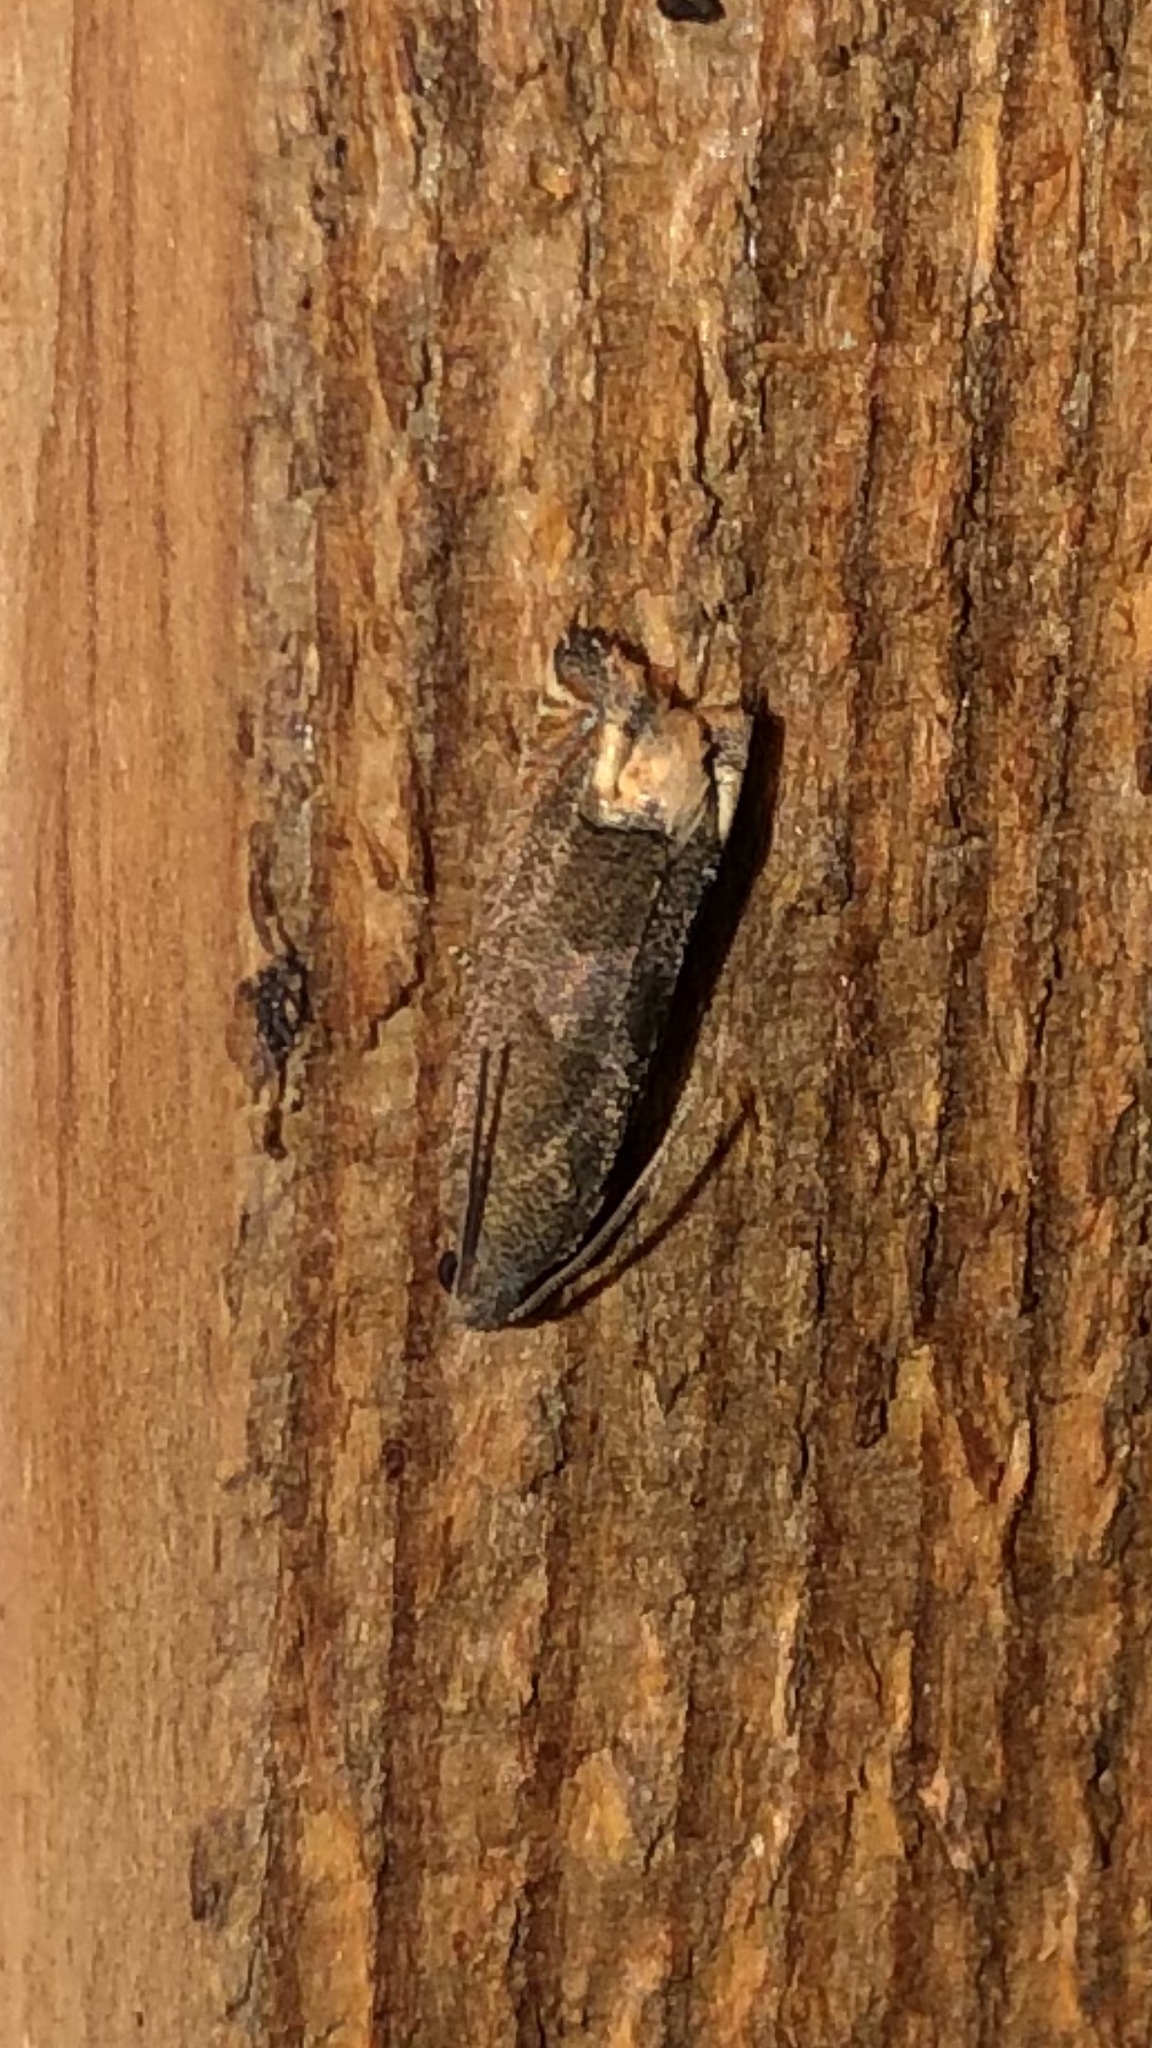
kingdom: Animalia
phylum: Arthropoda
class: Insecta
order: Lepidoptera
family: Tortricidae
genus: Epiblema
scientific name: Epiblema strenuana
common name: Ragweed borer moth
